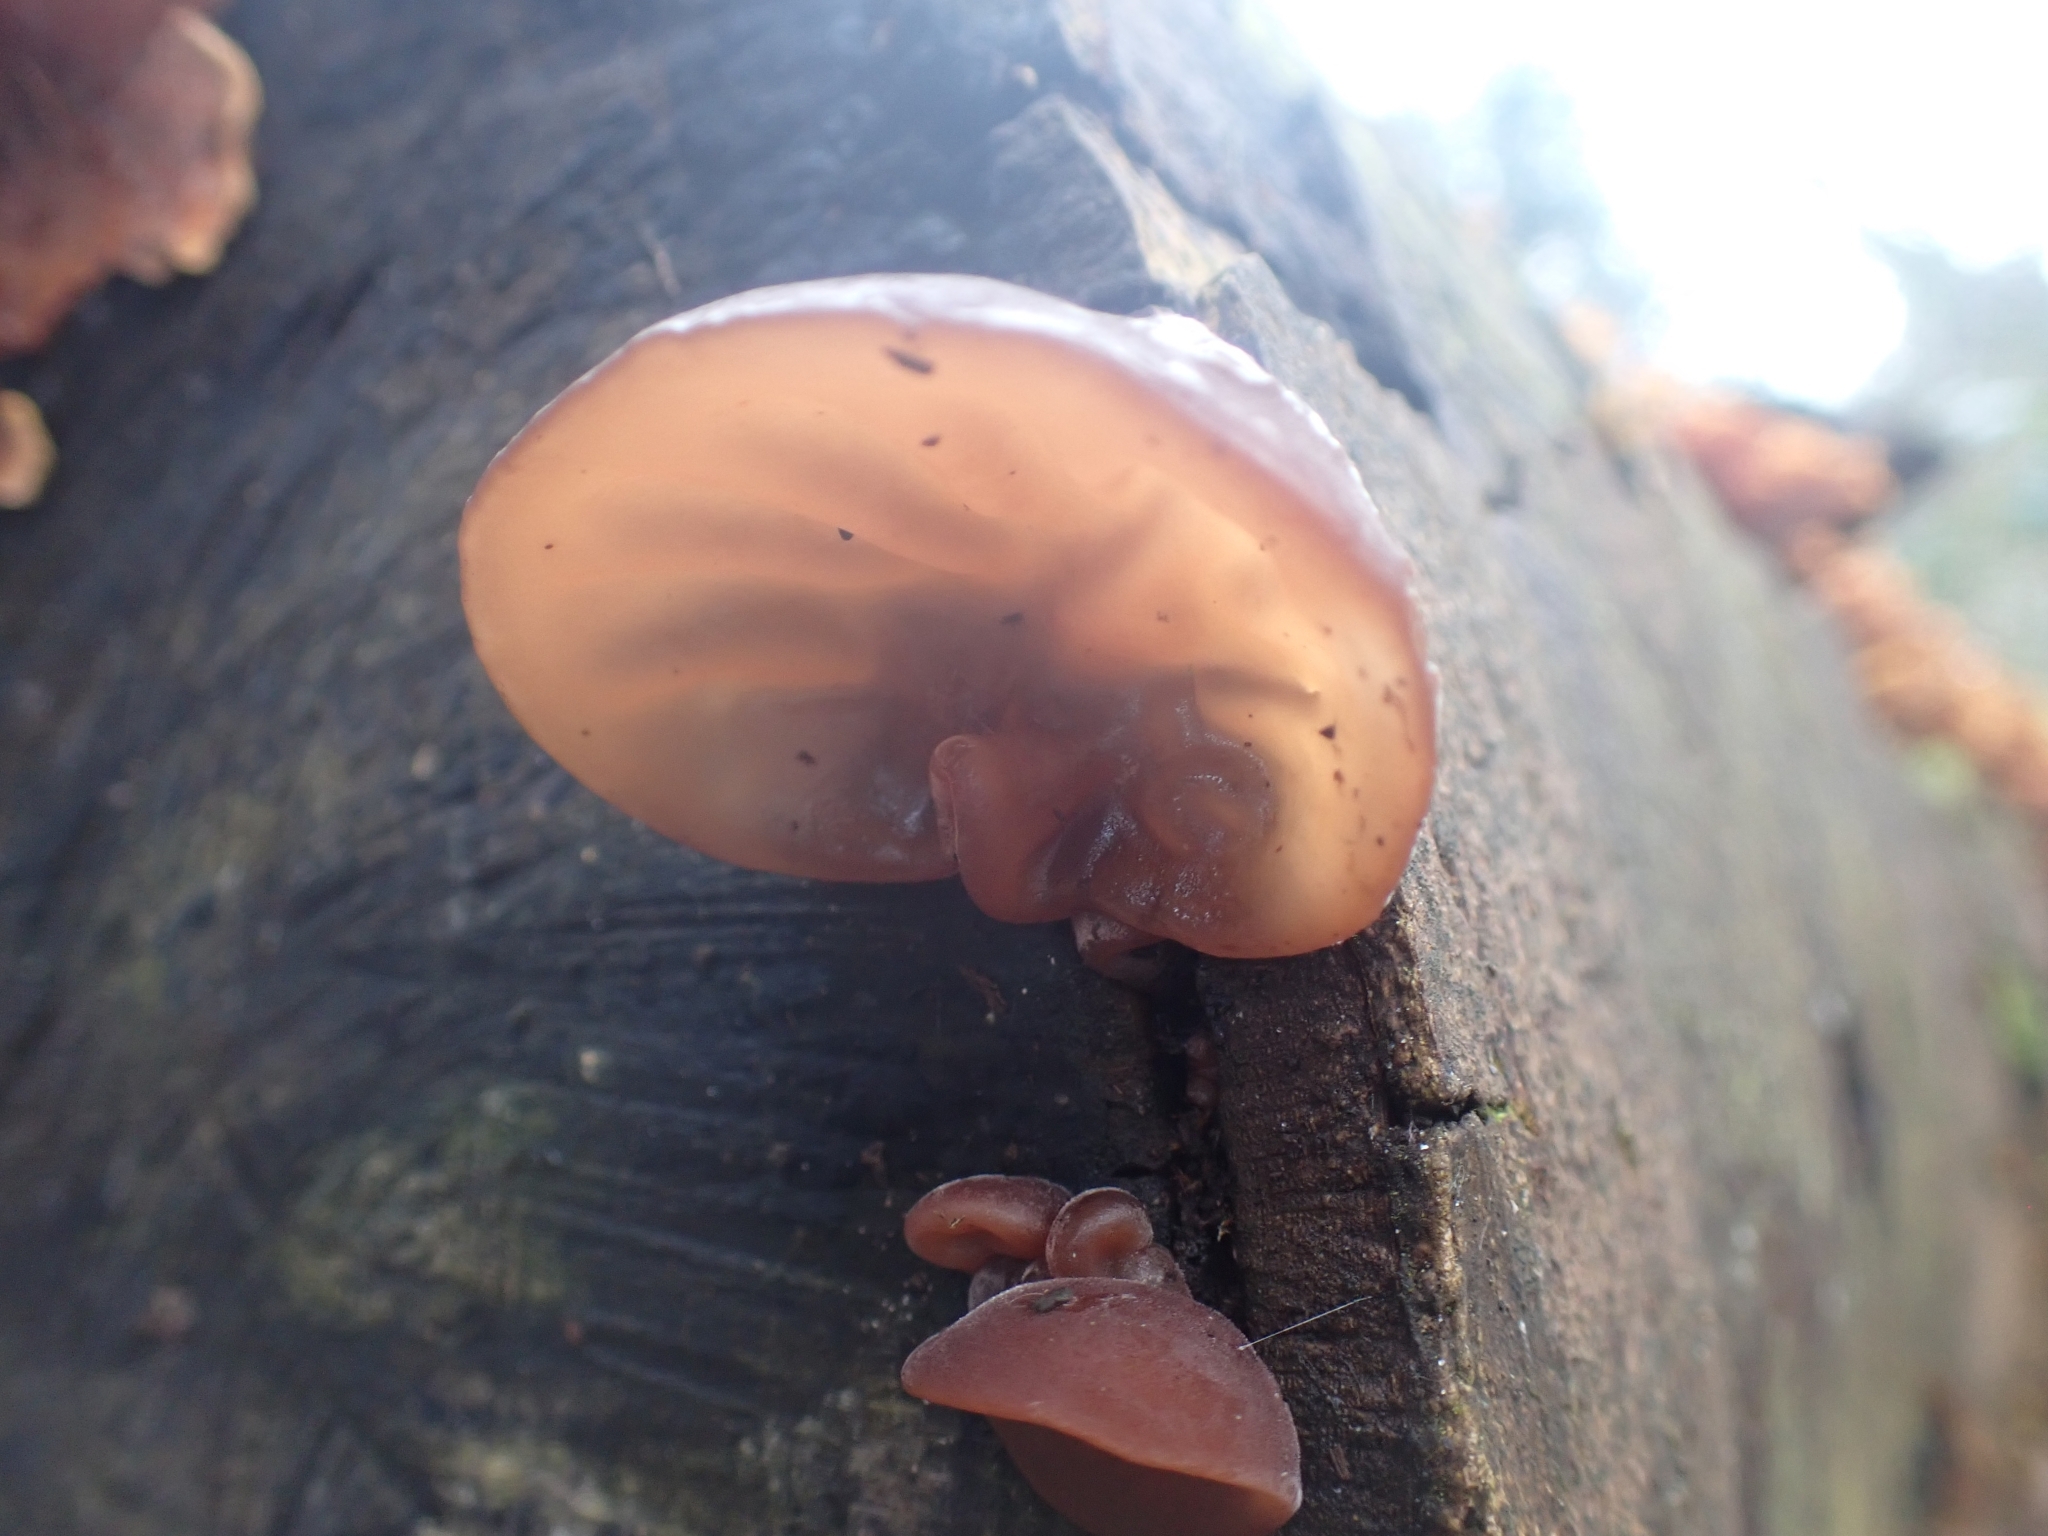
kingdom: Fungi
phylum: Basidiomycota
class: Agaricomycetes
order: Auriculariales
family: Auriculariaceae
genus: Auricularia
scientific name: Auricularia auricula-judae
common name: Jelly ear
